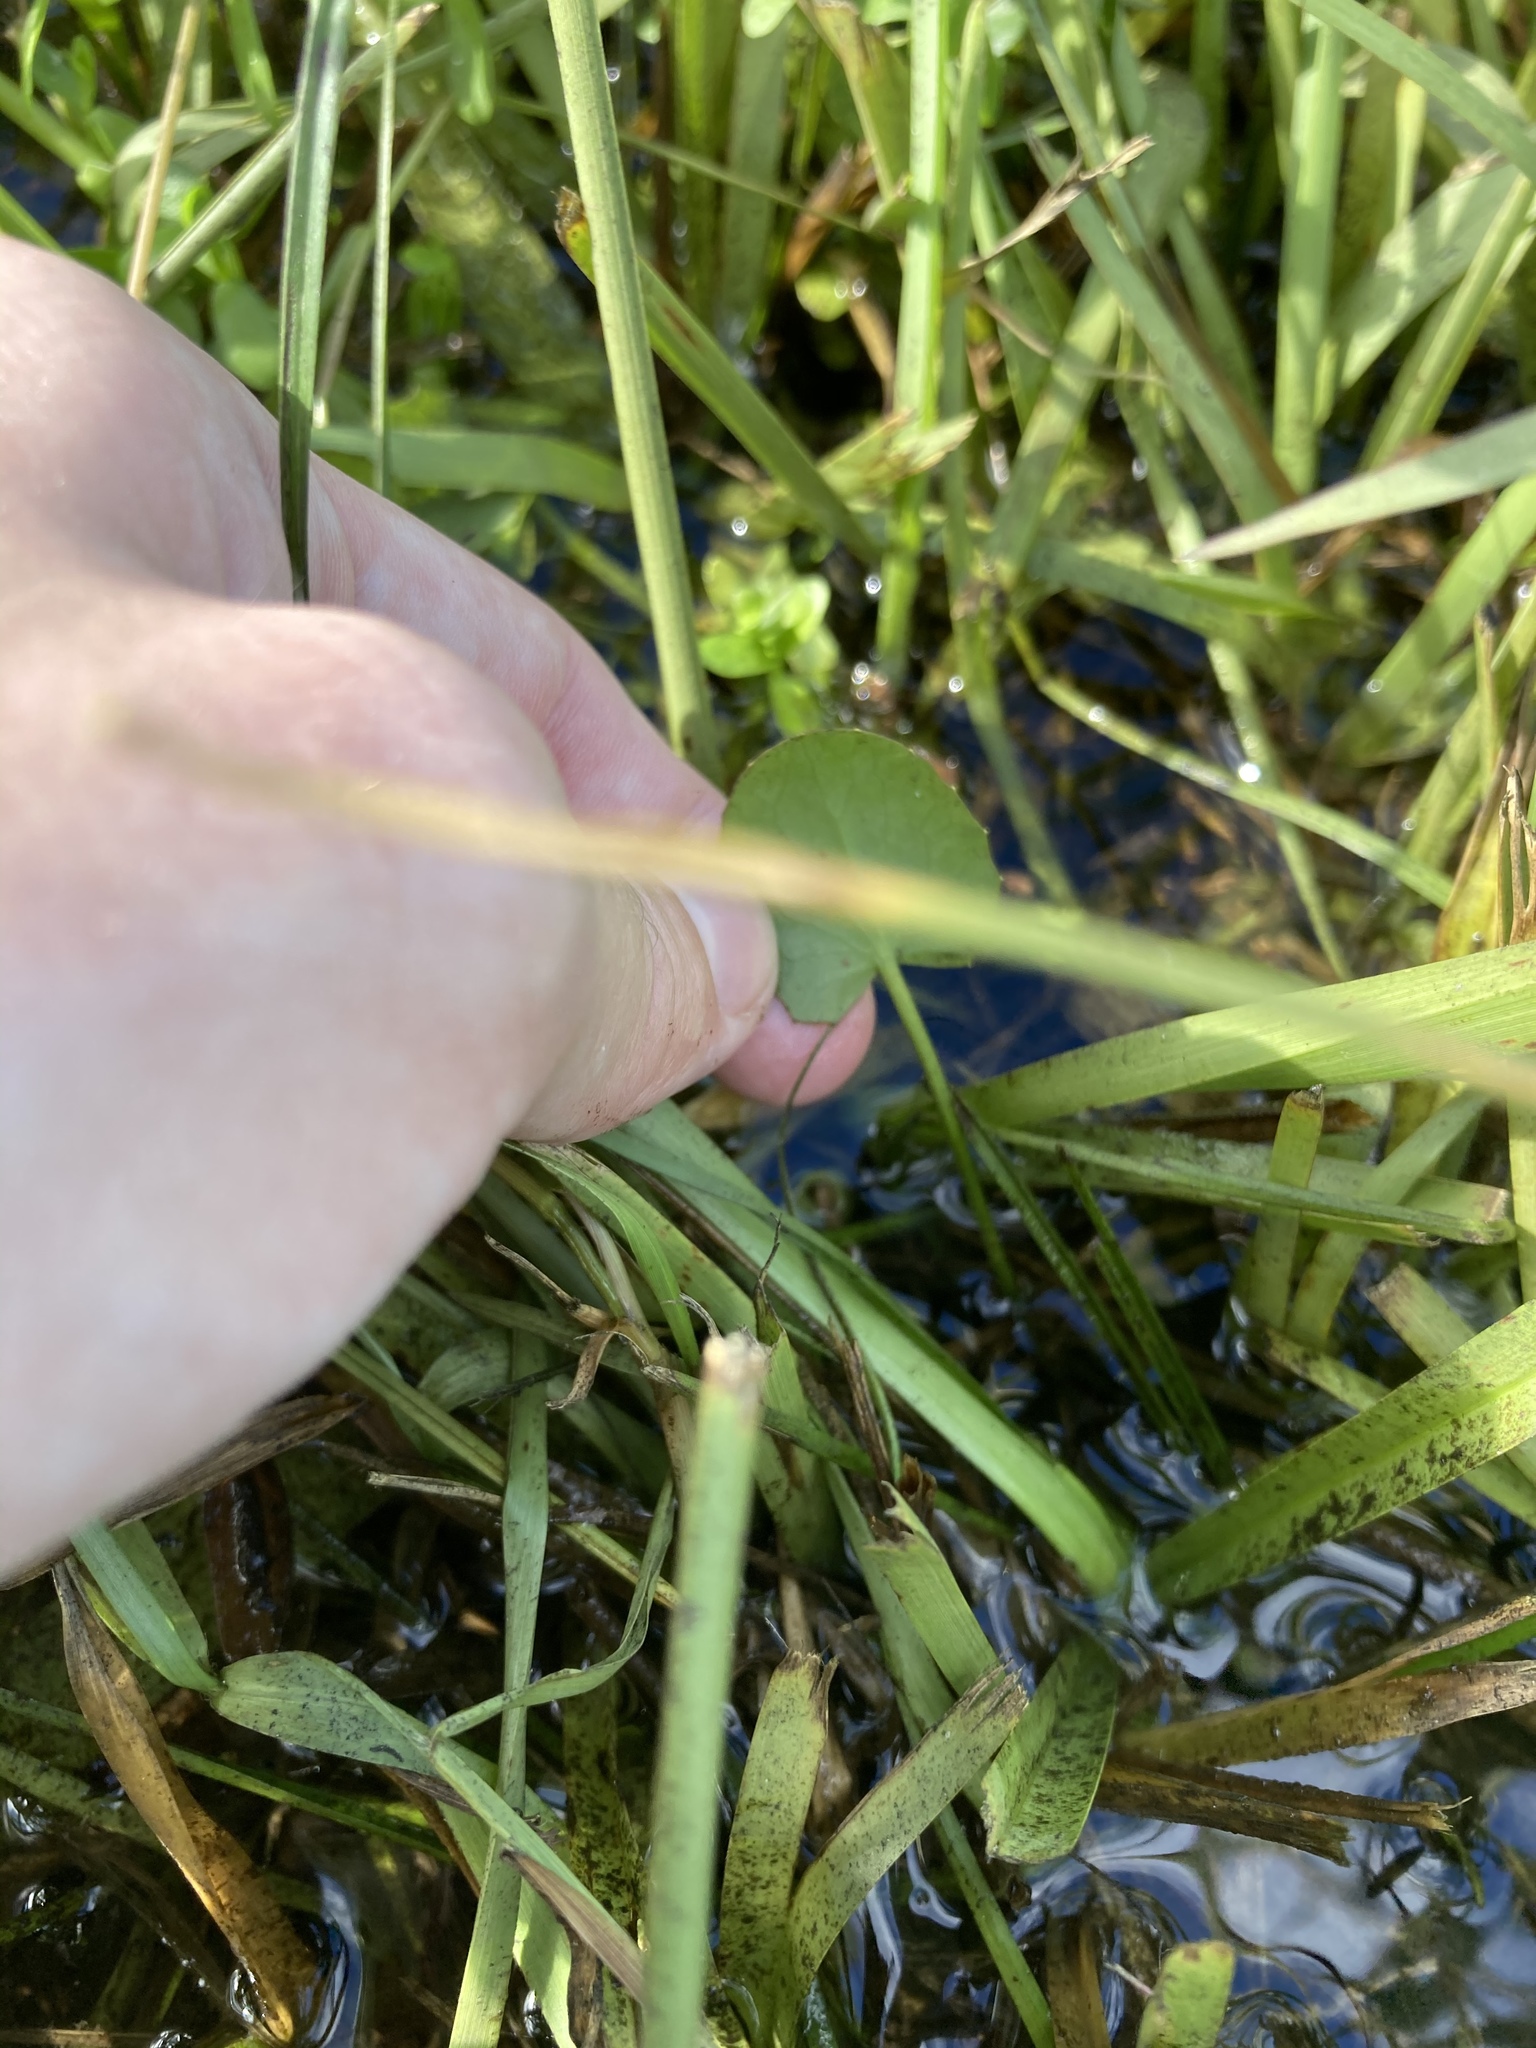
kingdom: Plantae
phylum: Tracheophyta
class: Magnoliopsida
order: Apiales
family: Apiaceae
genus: Centella
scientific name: Centella erecta
